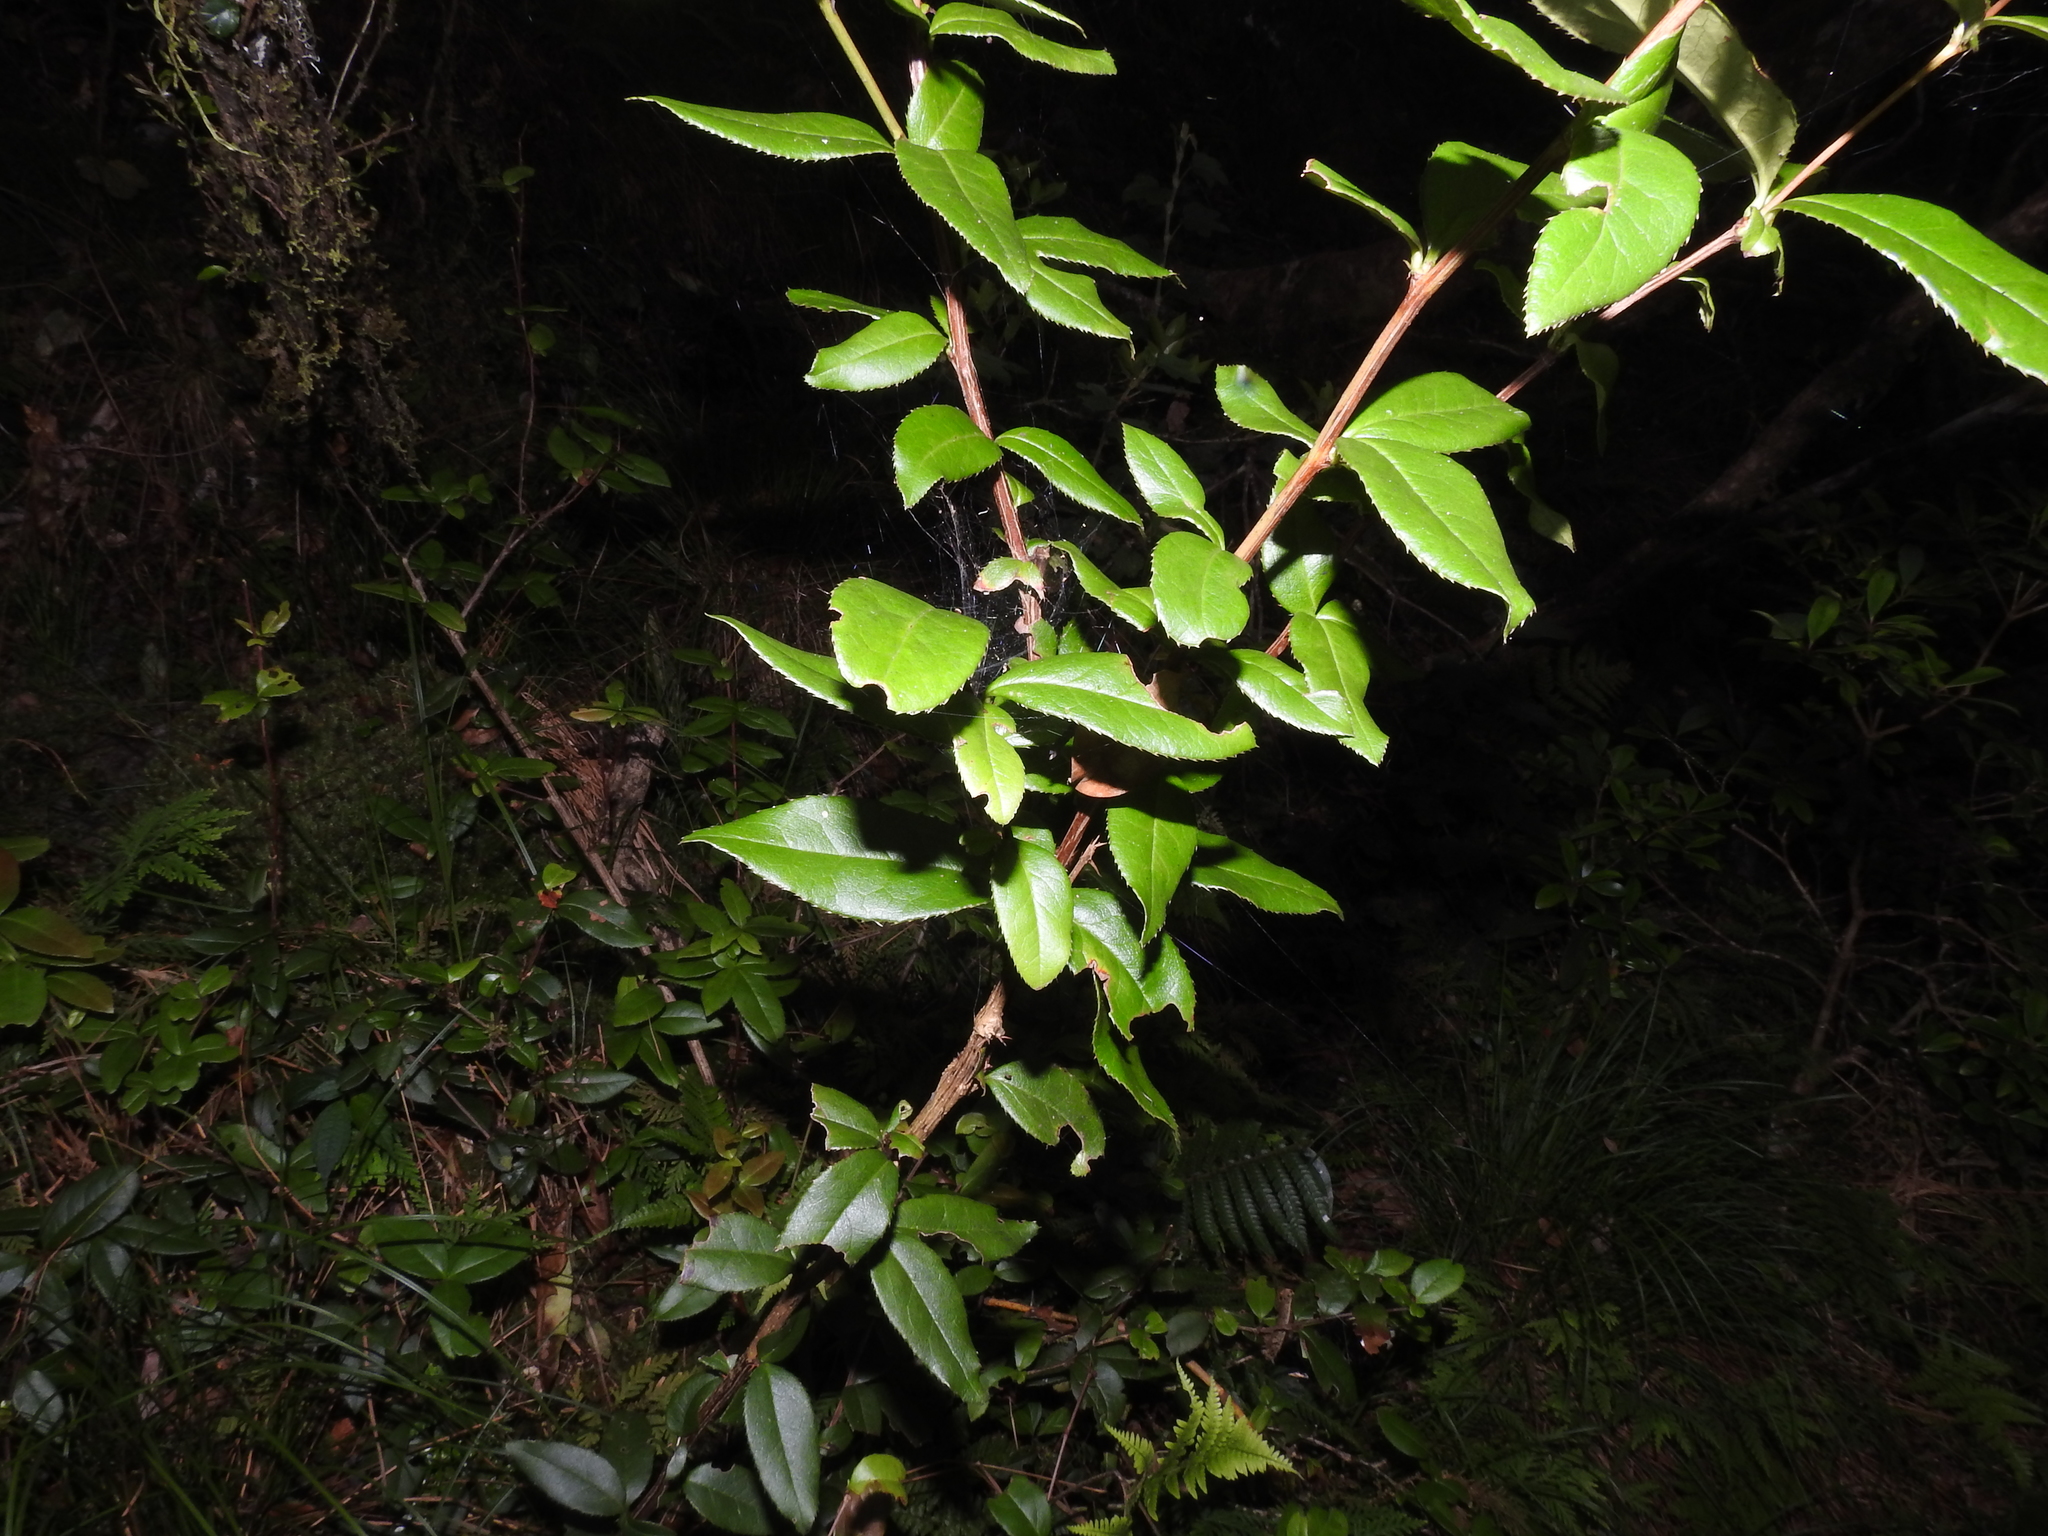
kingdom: Plantae
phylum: Tracheophyta
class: Magnoliopsida
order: Ranunculales
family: Berberidaceae
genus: Berberis
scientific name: Berberis schaaliae
